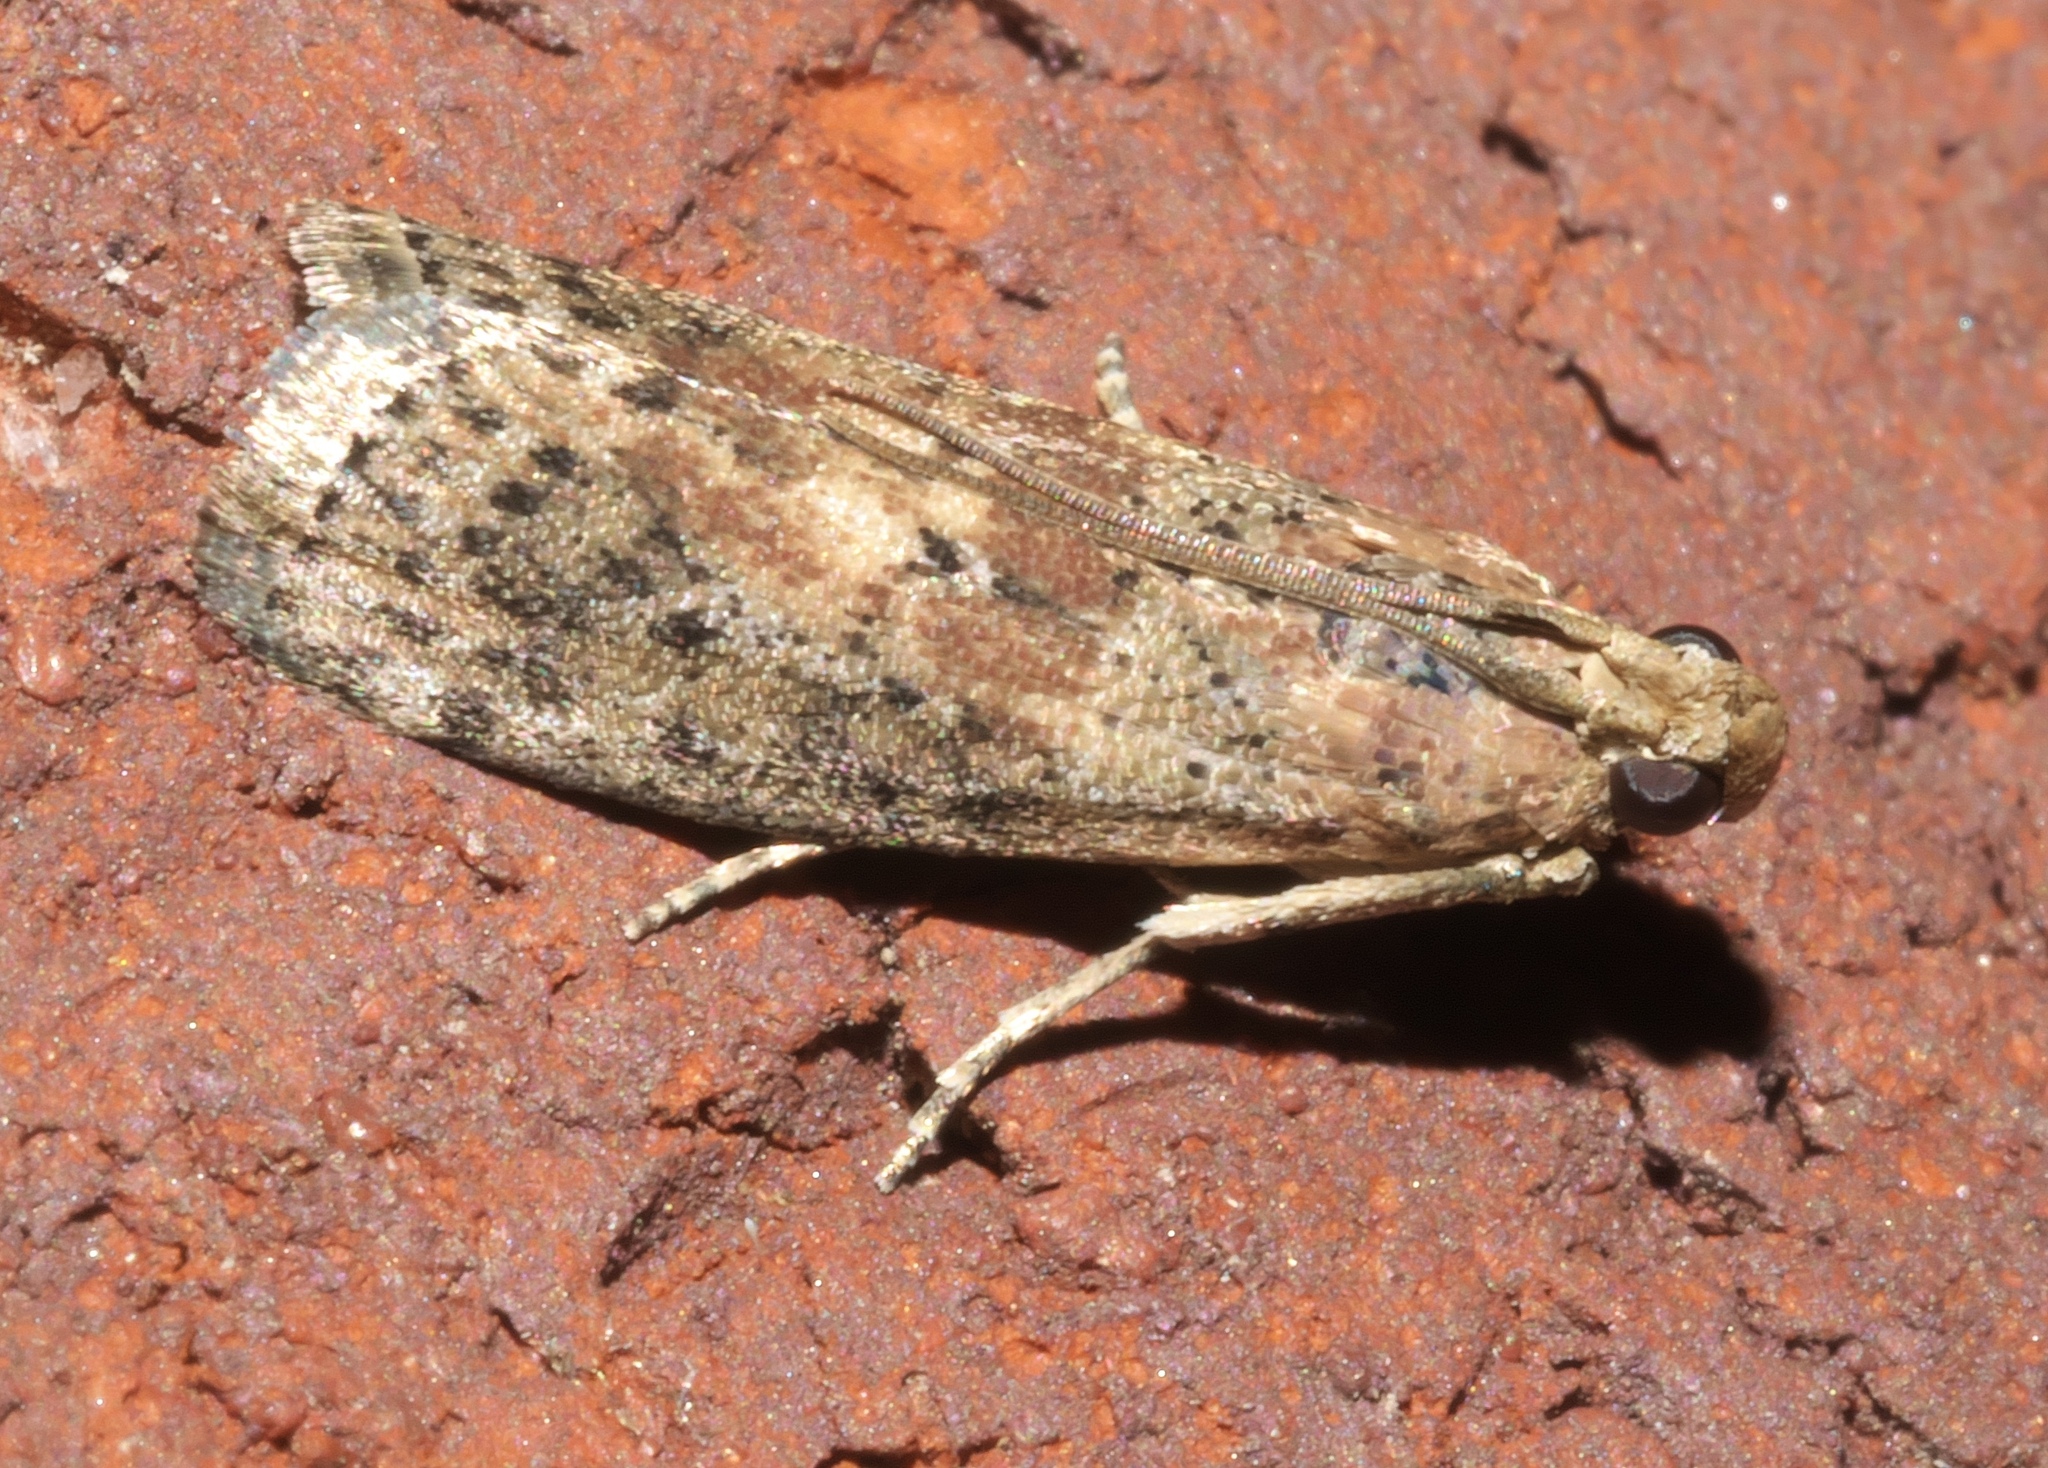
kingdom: Animalia
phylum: Arthropoda
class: Insecta
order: Lepidoptera
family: Pyralidae
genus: Sciota
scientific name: Sciota celtidella
